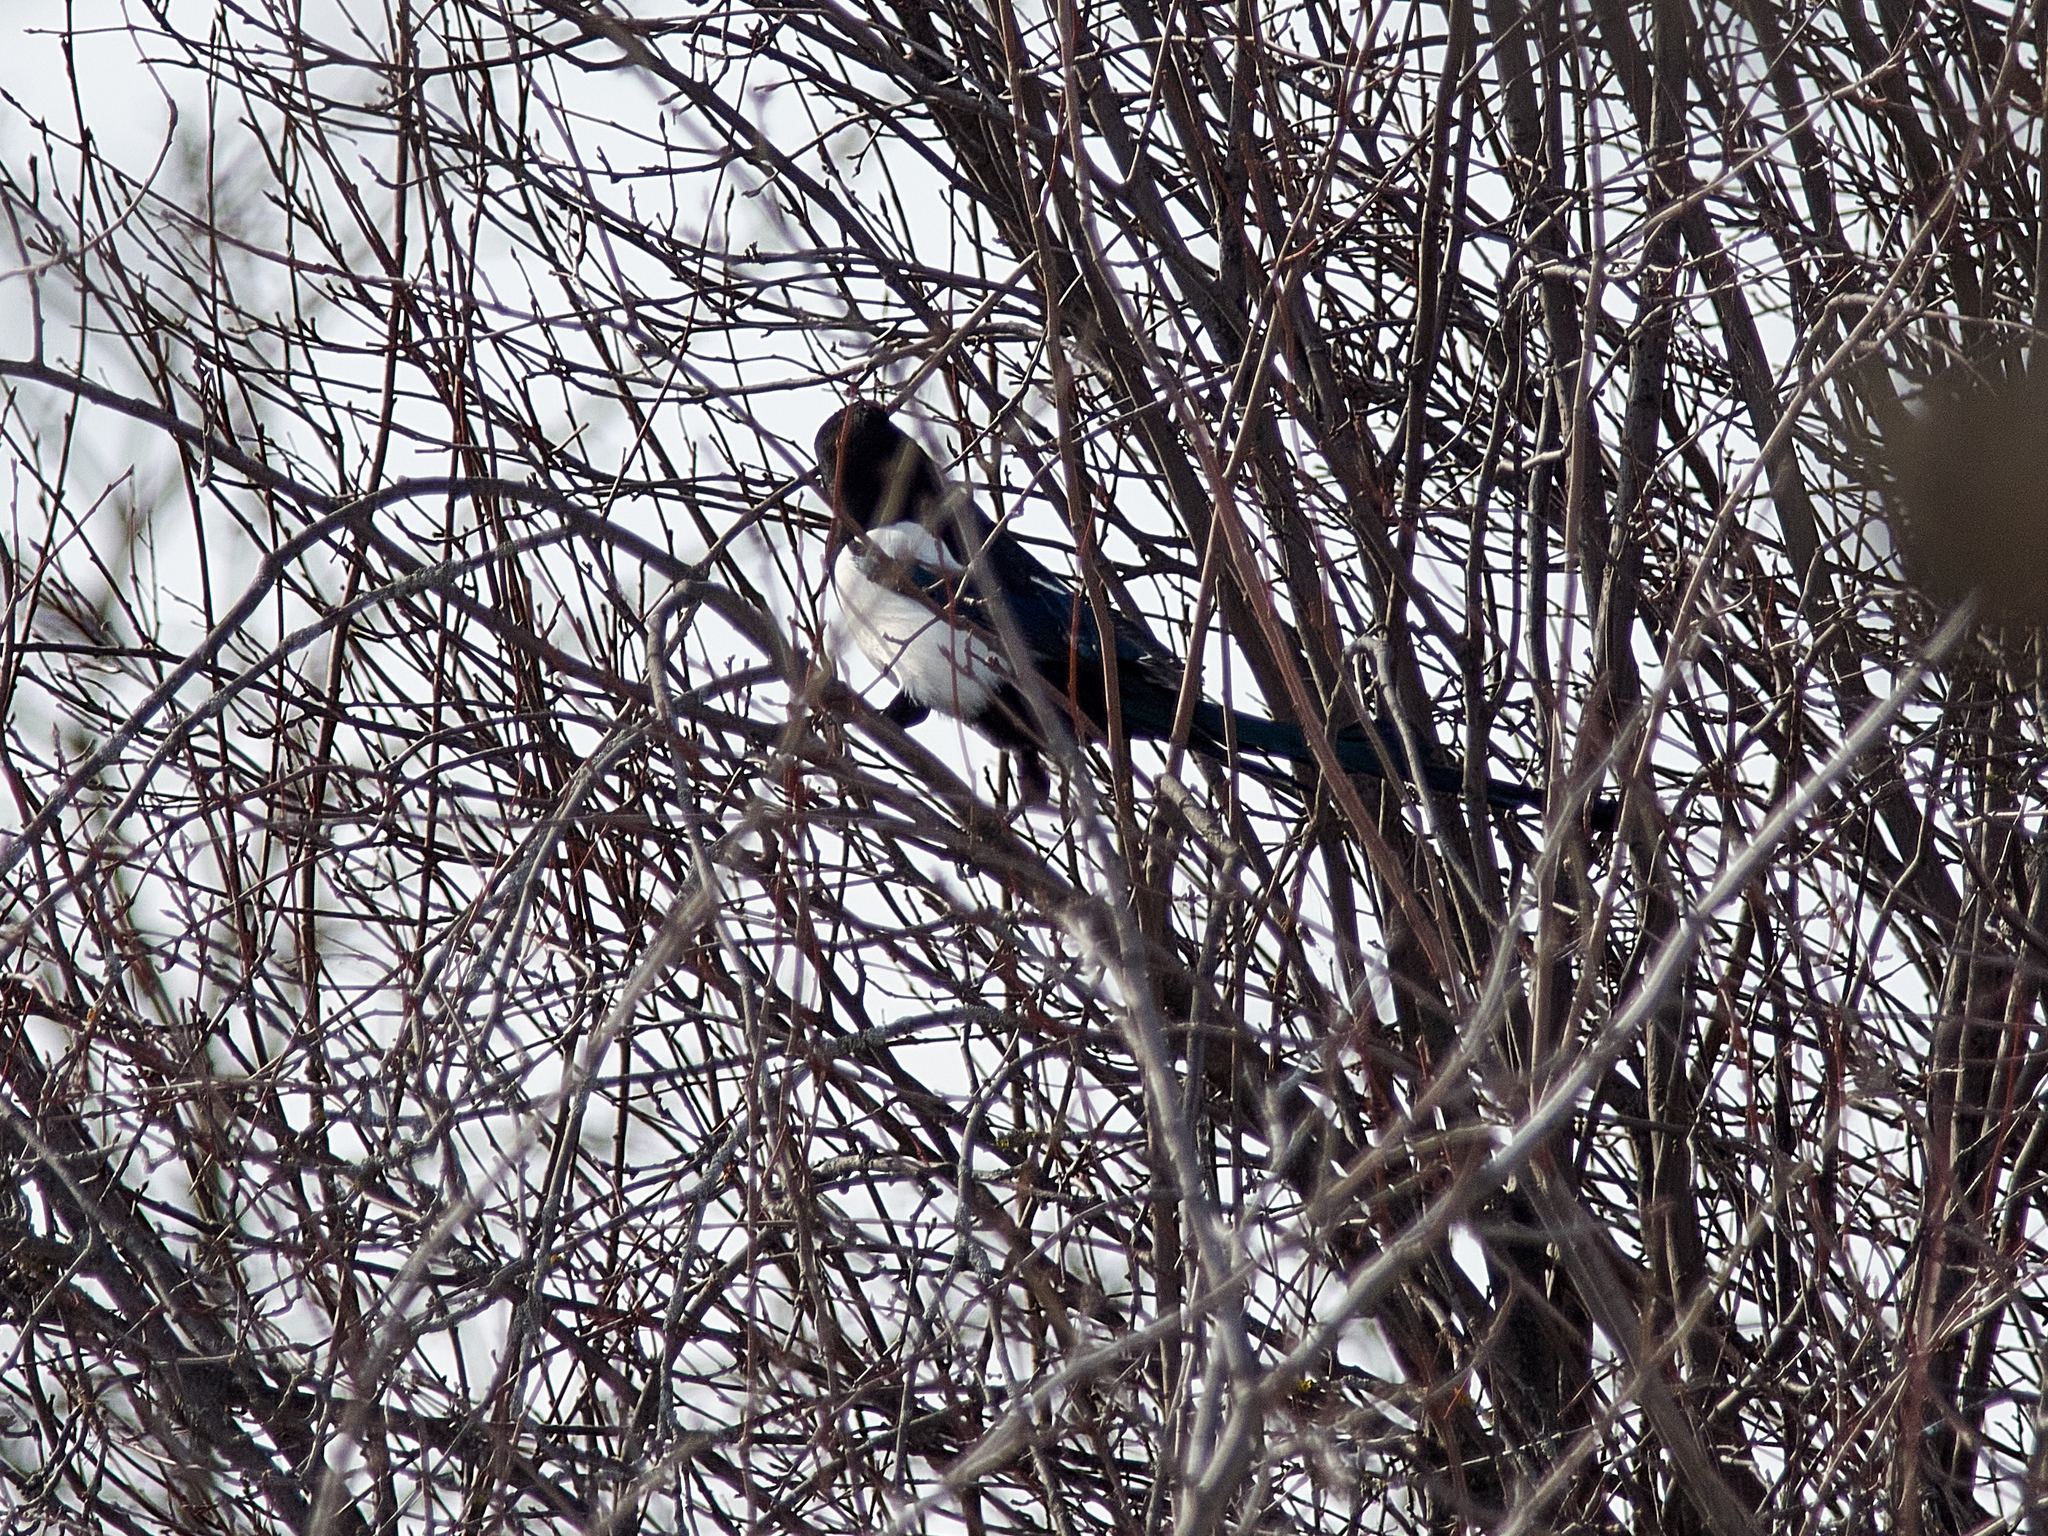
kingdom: Animalia
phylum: Chordata
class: Aves
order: Passeriformes
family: Corvidae
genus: Pica
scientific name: Pica pica
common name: Eurasian magpie
